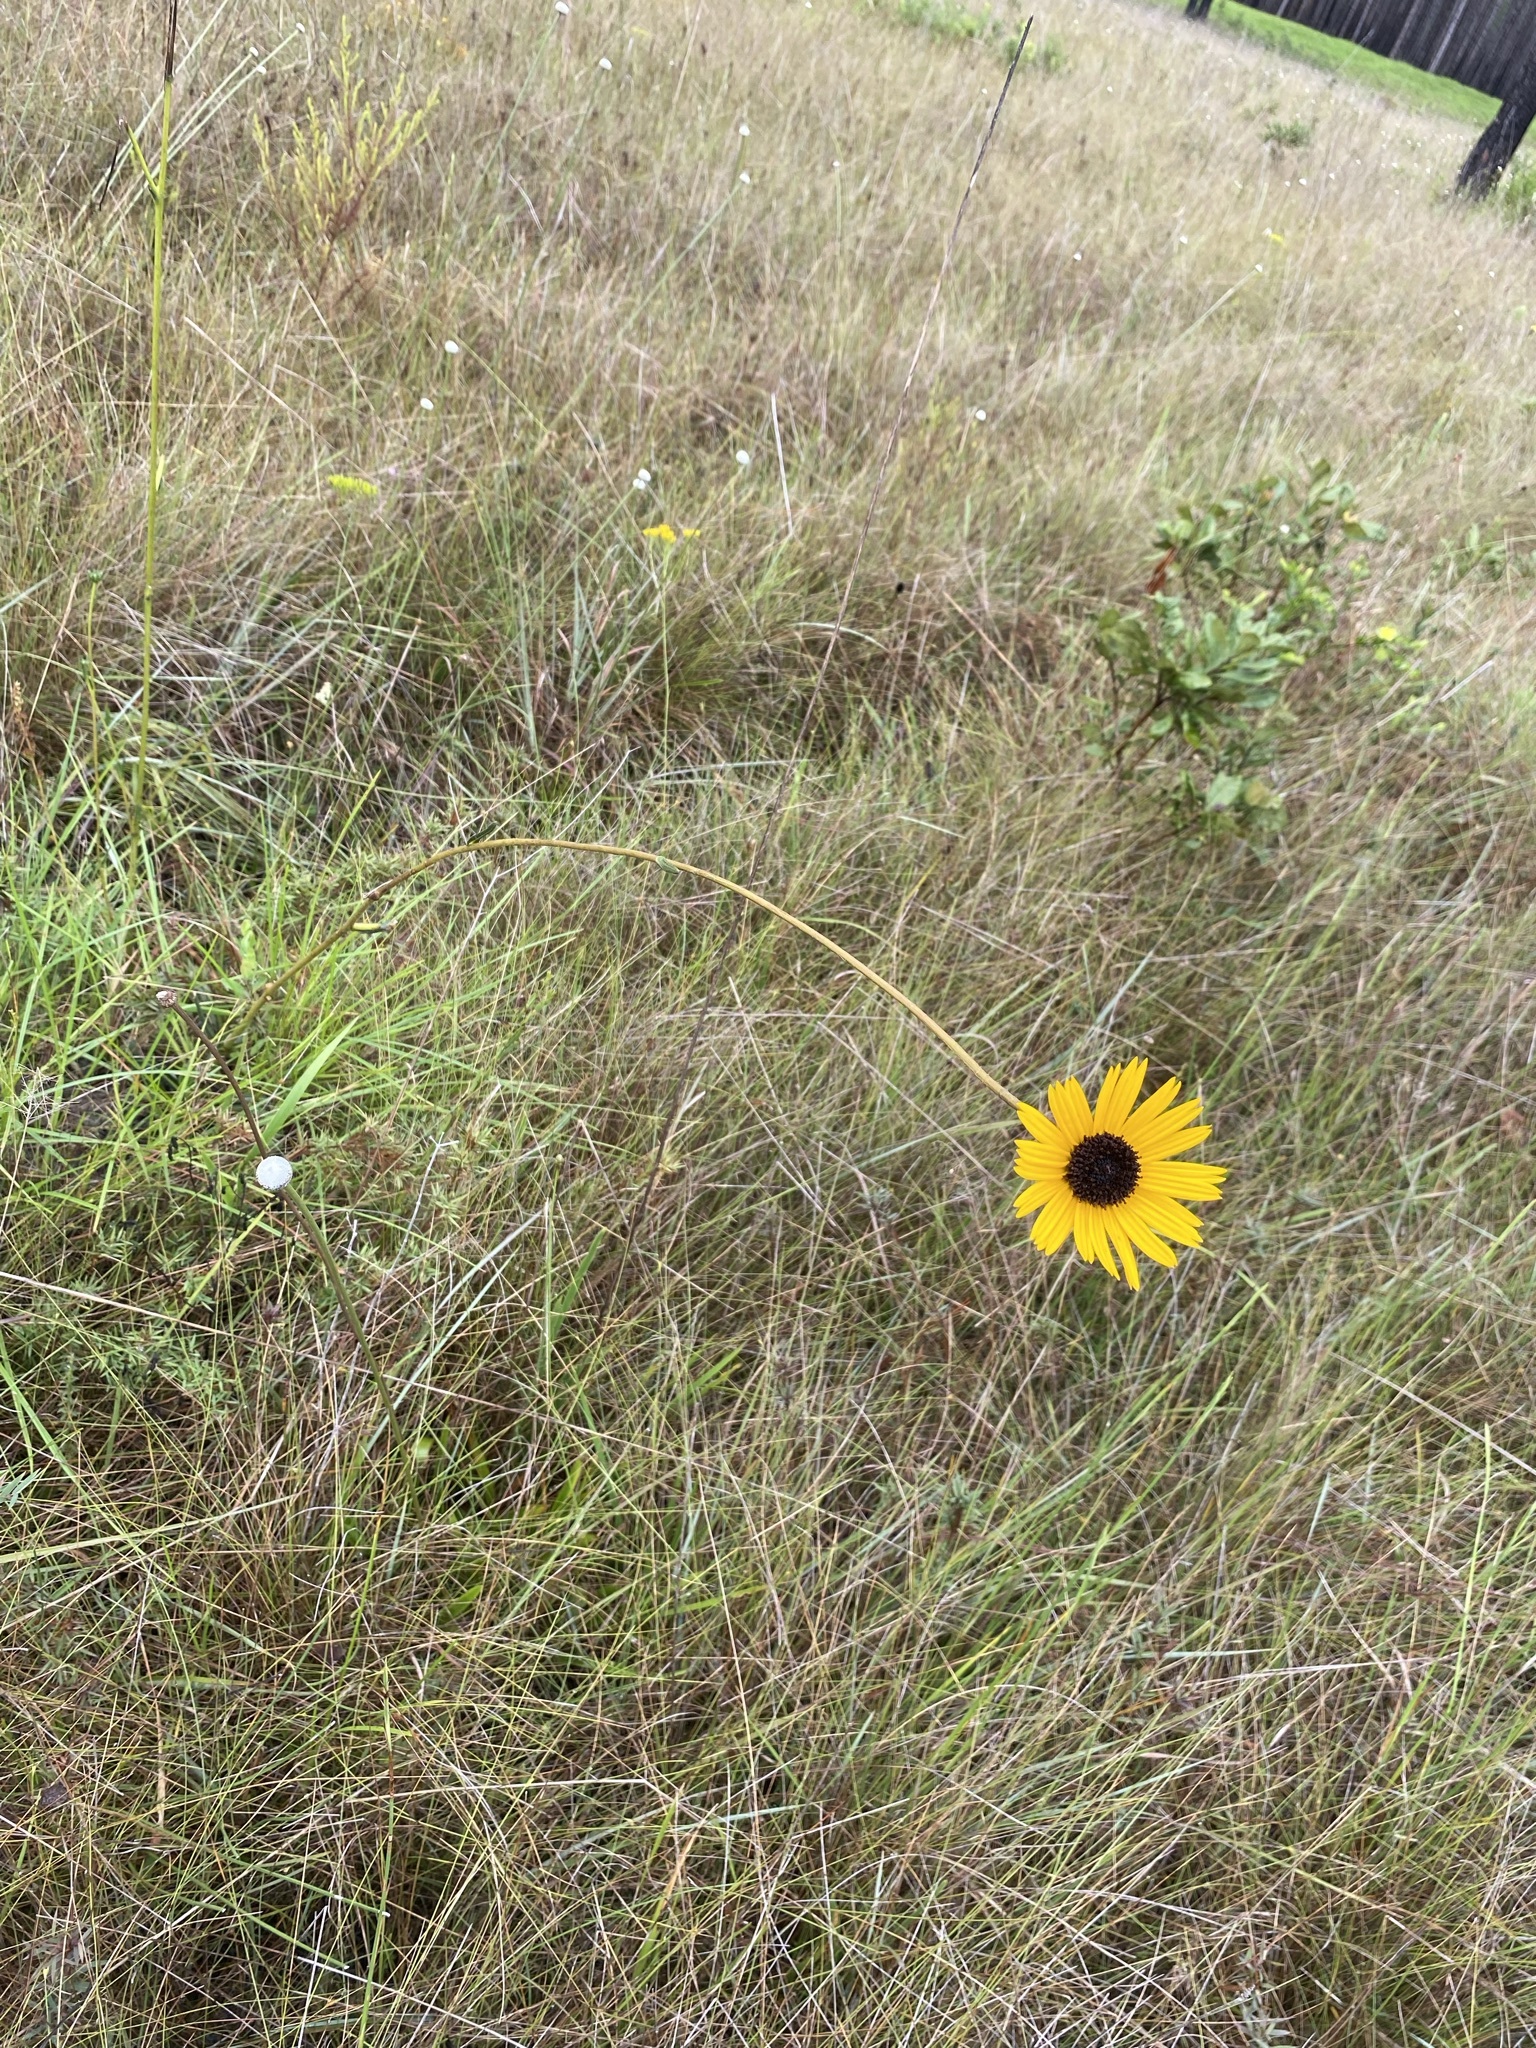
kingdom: Plantae
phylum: Tracheophyta
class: Magnoliopsida
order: Asterales
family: Asteraceae
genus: Helianthus
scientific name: Helianthus heterophyllus
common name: Wetland sunflower
